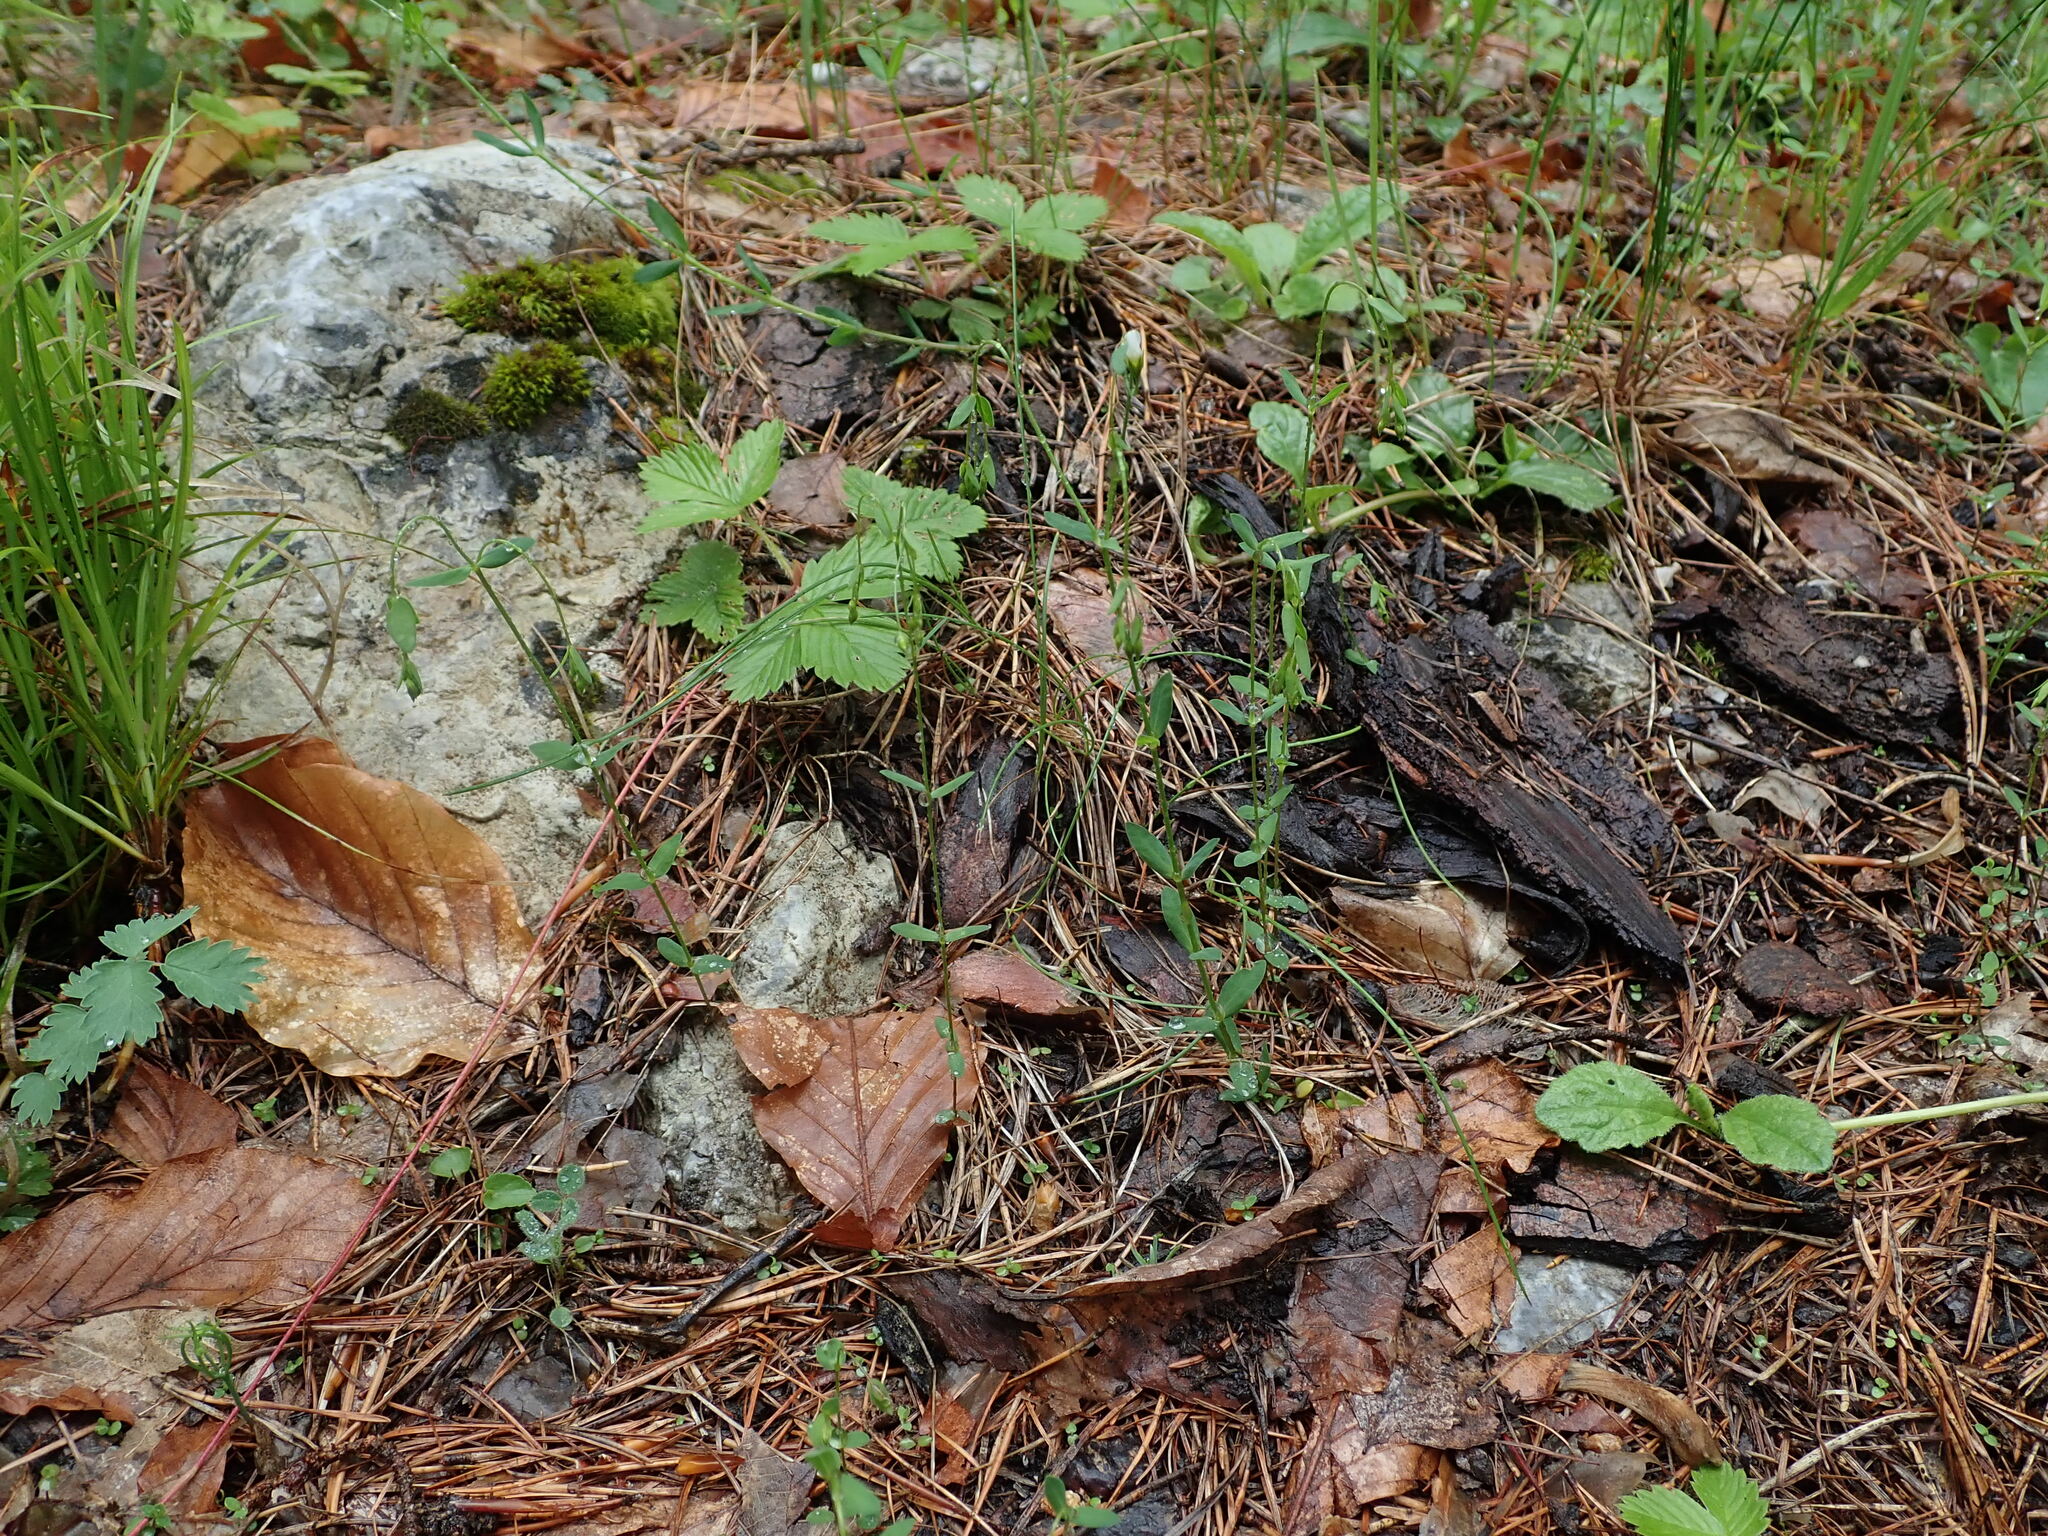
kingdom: Plantae
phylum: Tracheophyta
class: Magnoliopsida
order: Malpighiales
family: Linaceae
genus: Linum
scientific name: Linum catharticum
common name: Fairy flax
